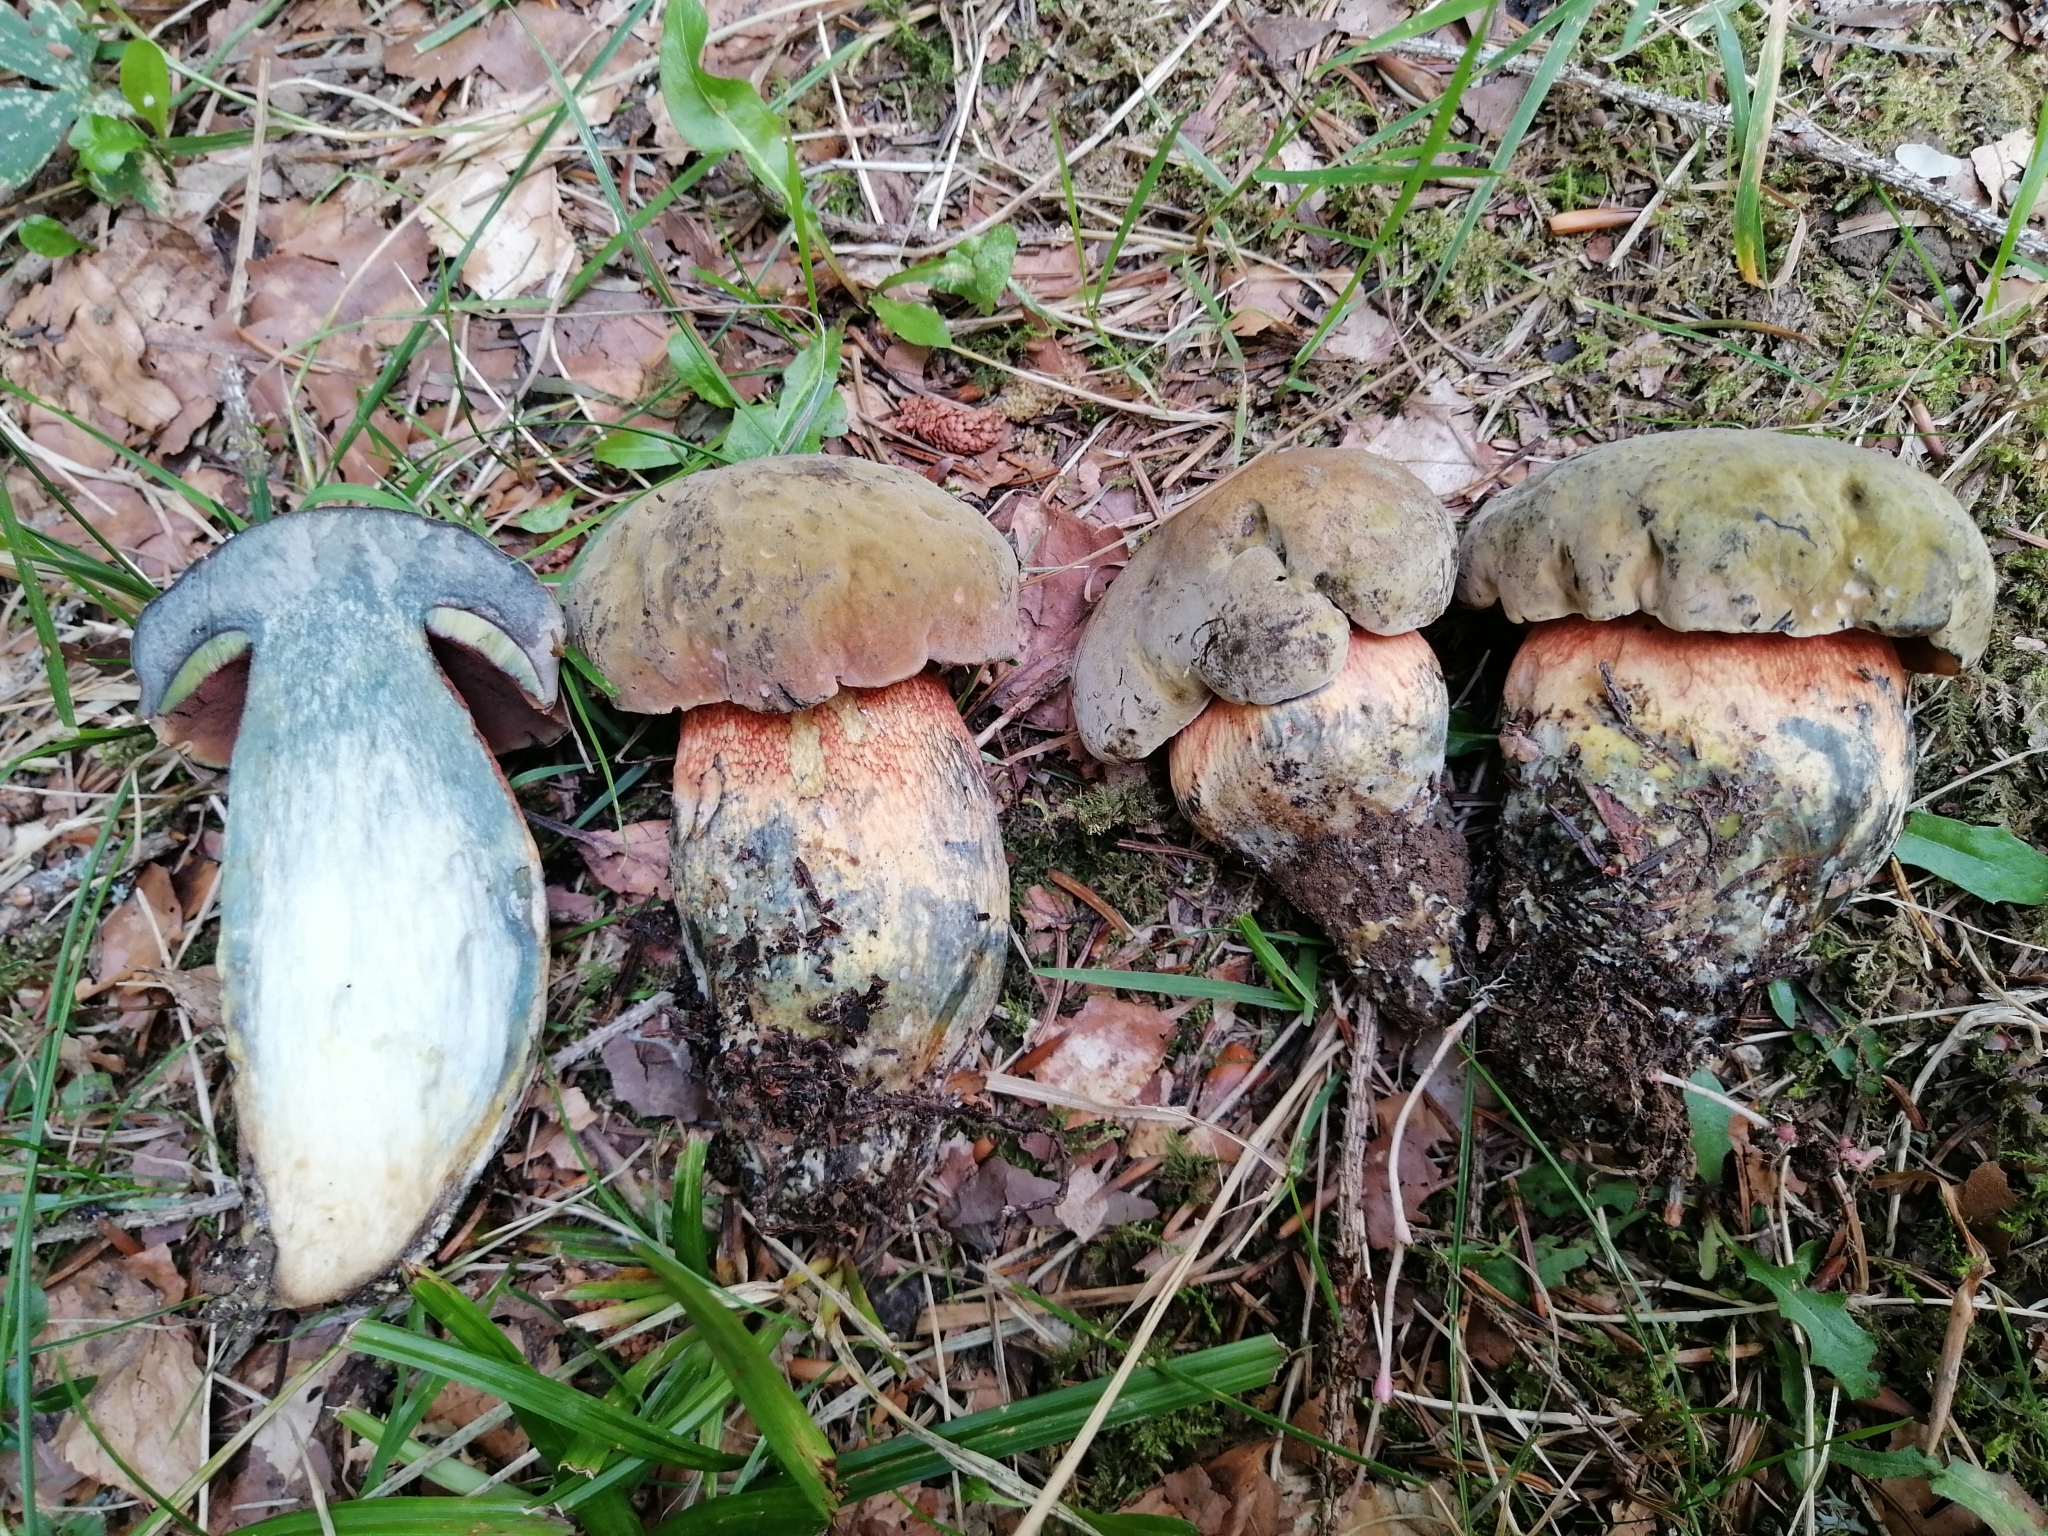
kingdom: Fungi
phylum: Basidiomycota
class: Agaricomycetes
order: Boletales
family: Boletaceae
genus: Suillellus
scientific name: Suillellus mendax
